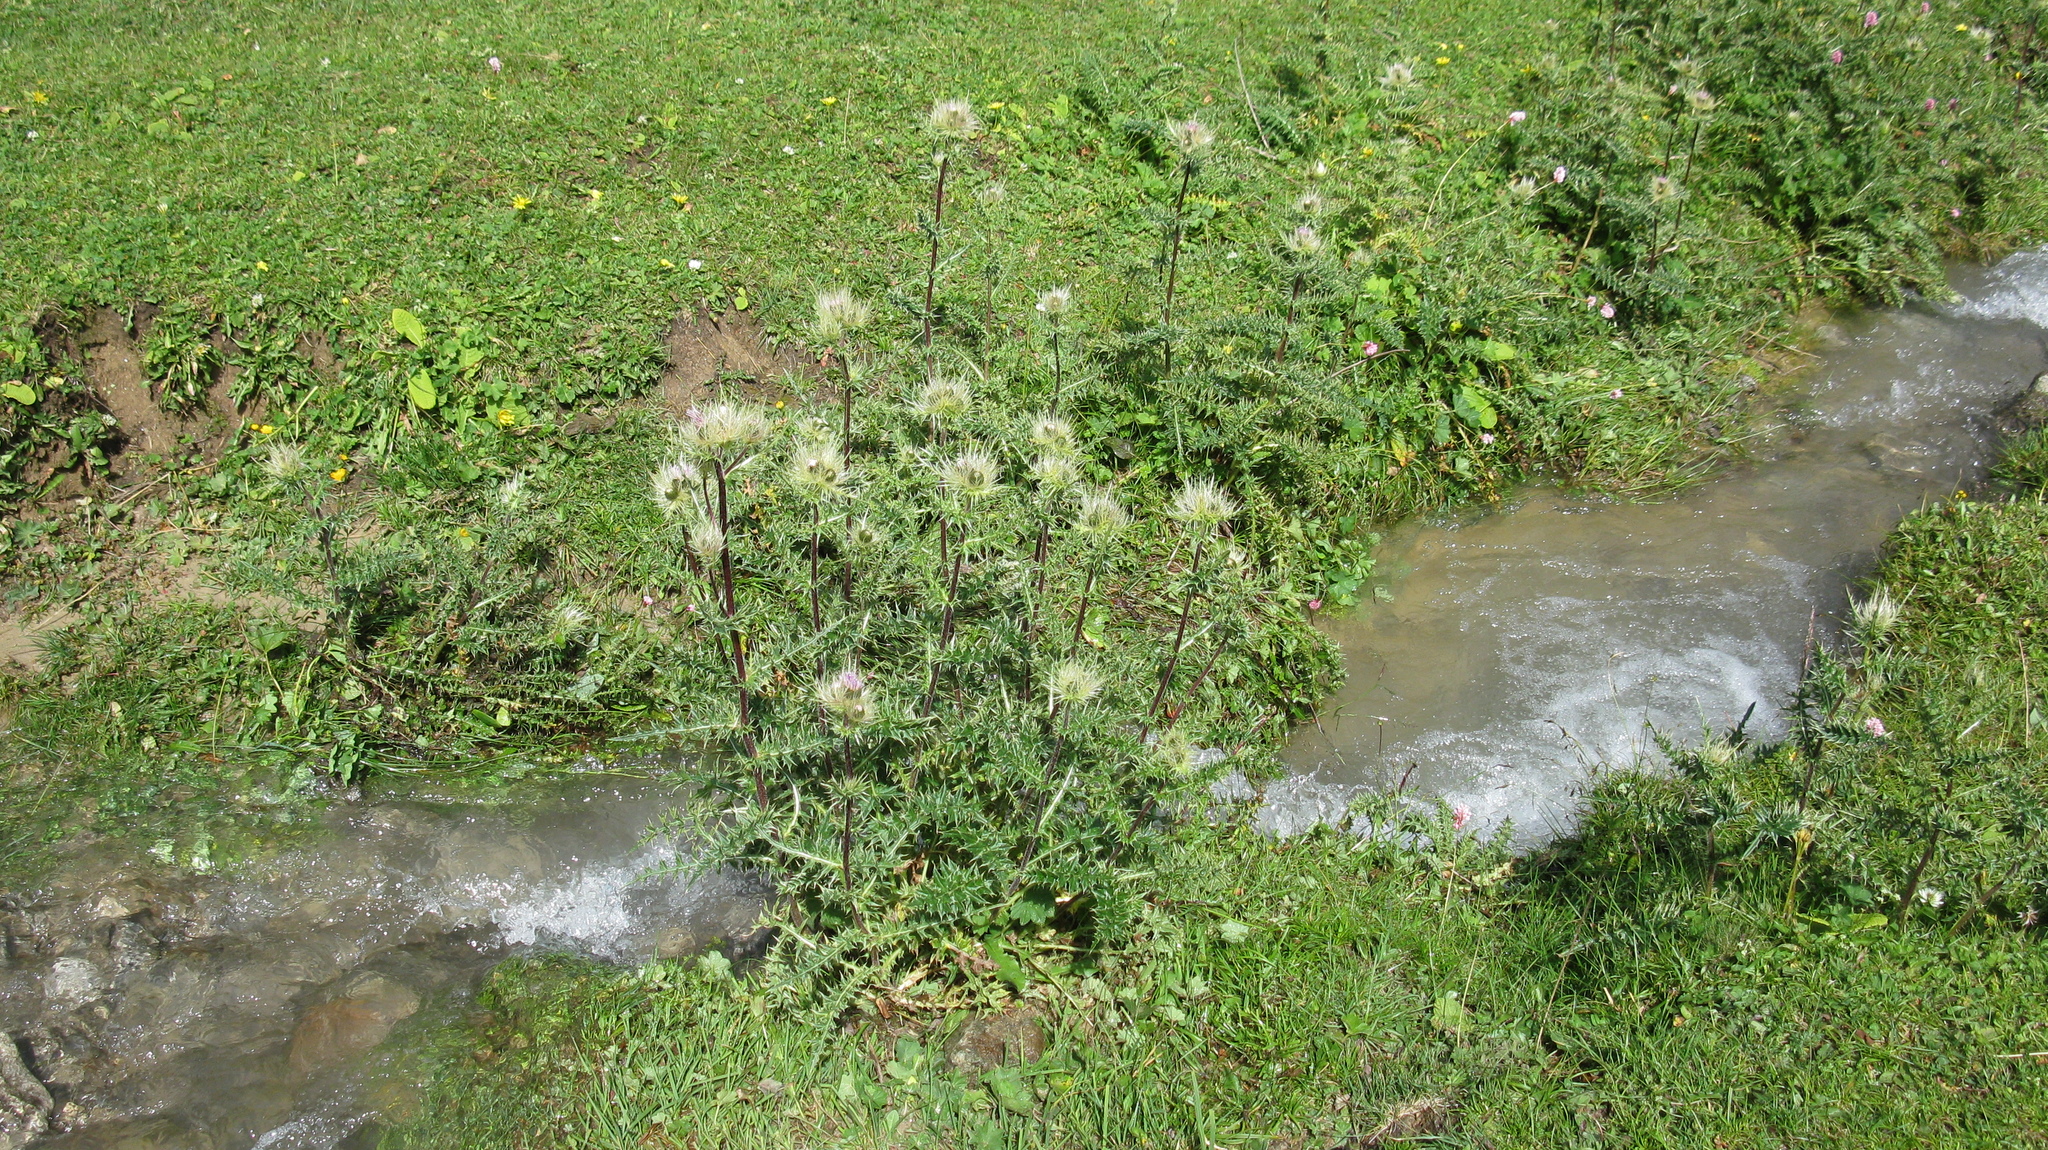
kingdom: Plantae
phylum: Tracheophyta
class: Magnoliopsida
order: Asterales
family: Asteraceae
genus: Cirsium
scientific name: Cirsium obvallatum
